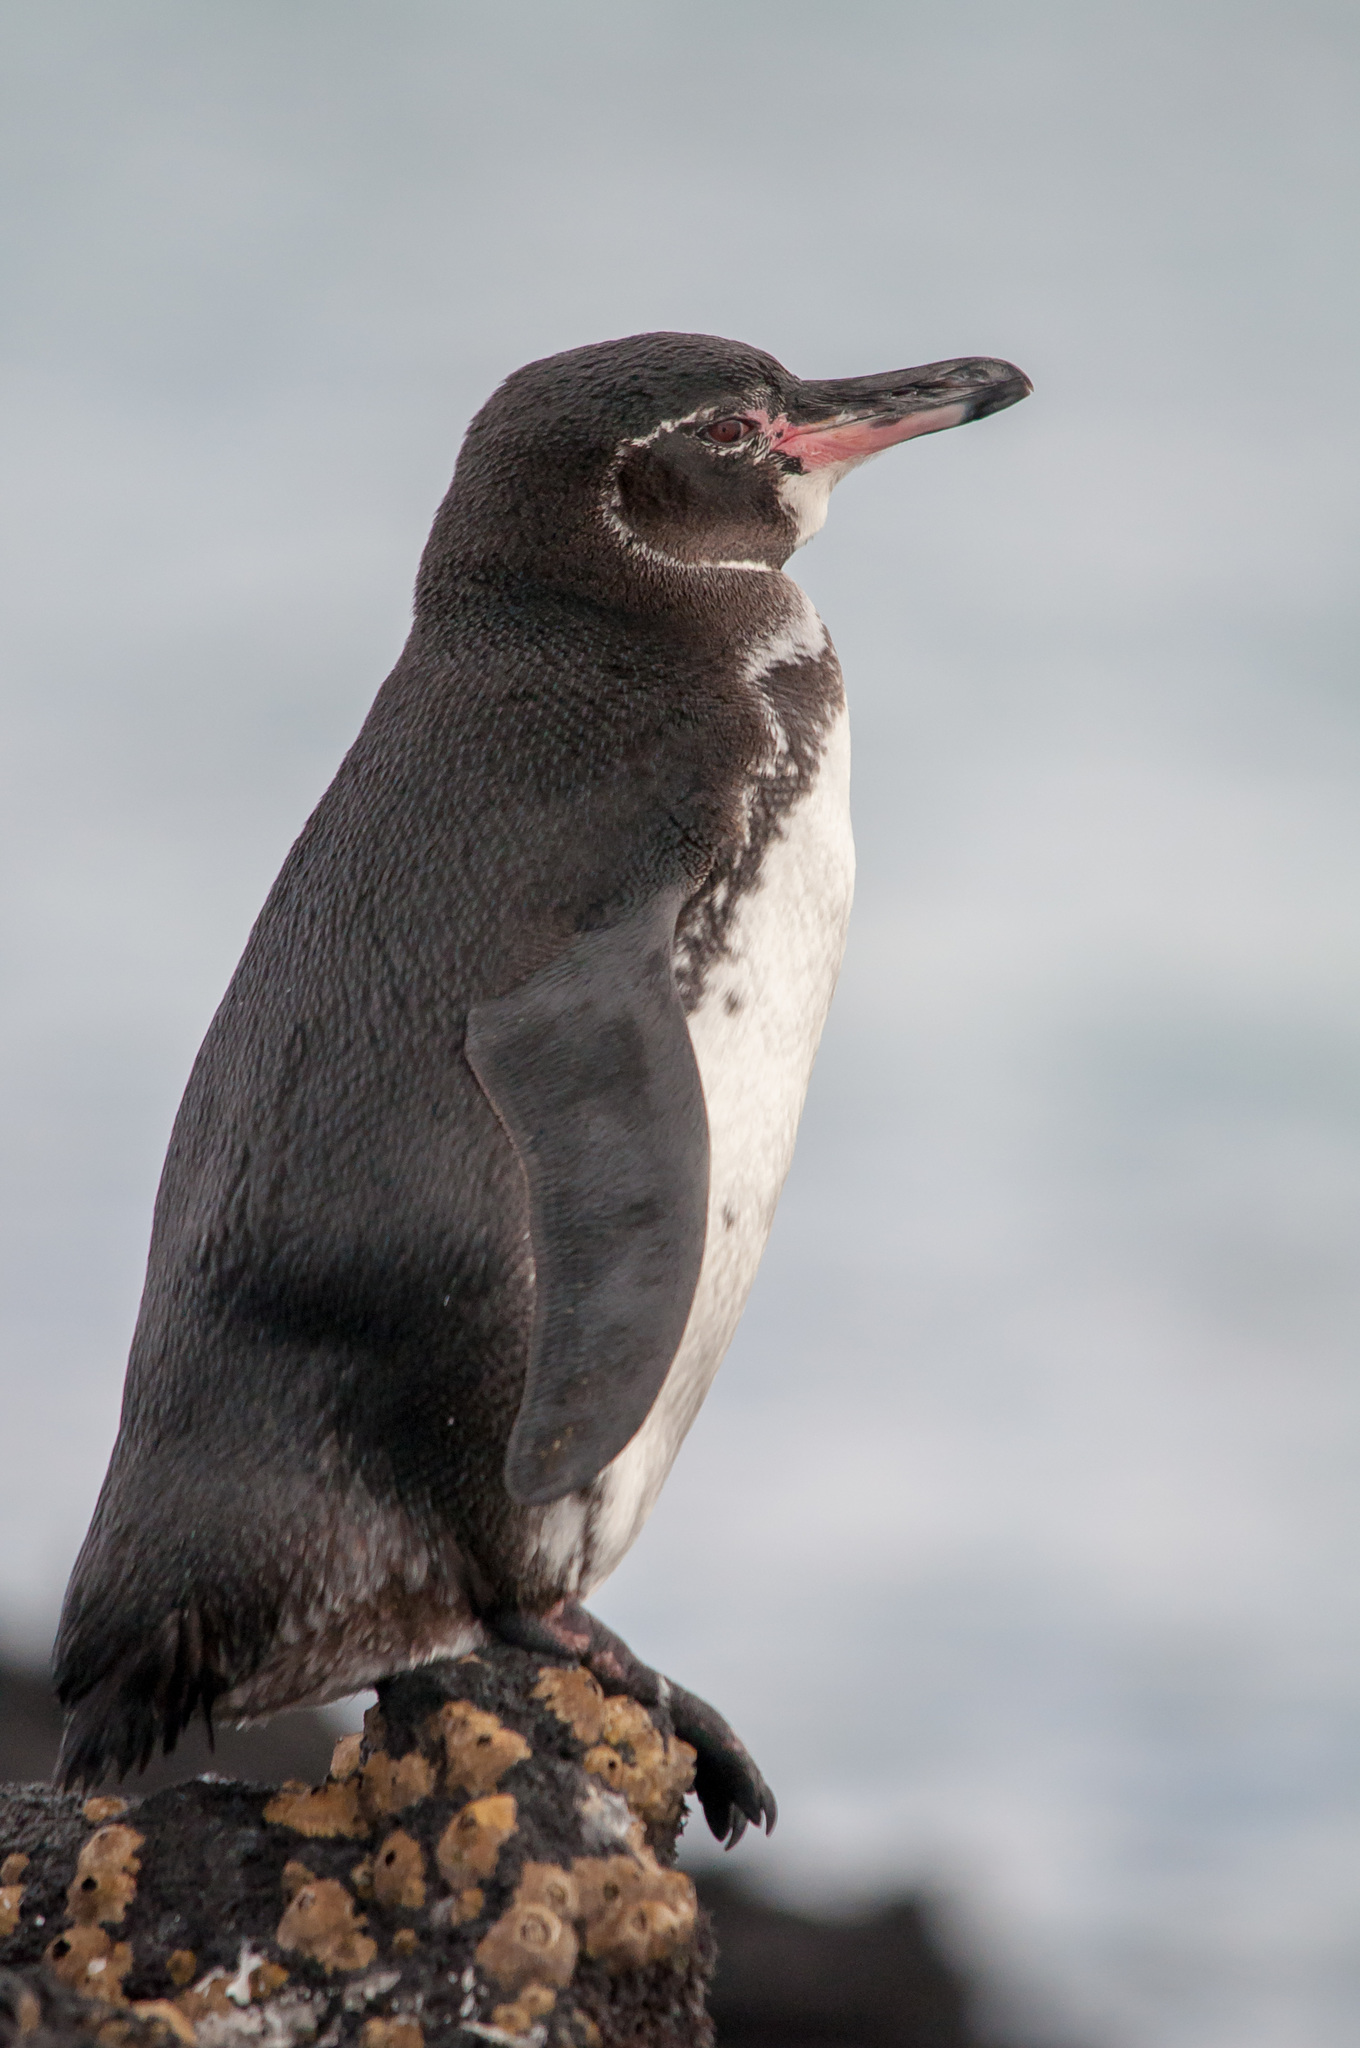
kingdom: Animalia
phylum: Chordata
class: Aves
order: Sphenisciformes
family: Spheniscidae
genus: Spheniscus
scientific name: Spheniscus mendiculus
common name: Galapagos penguin
